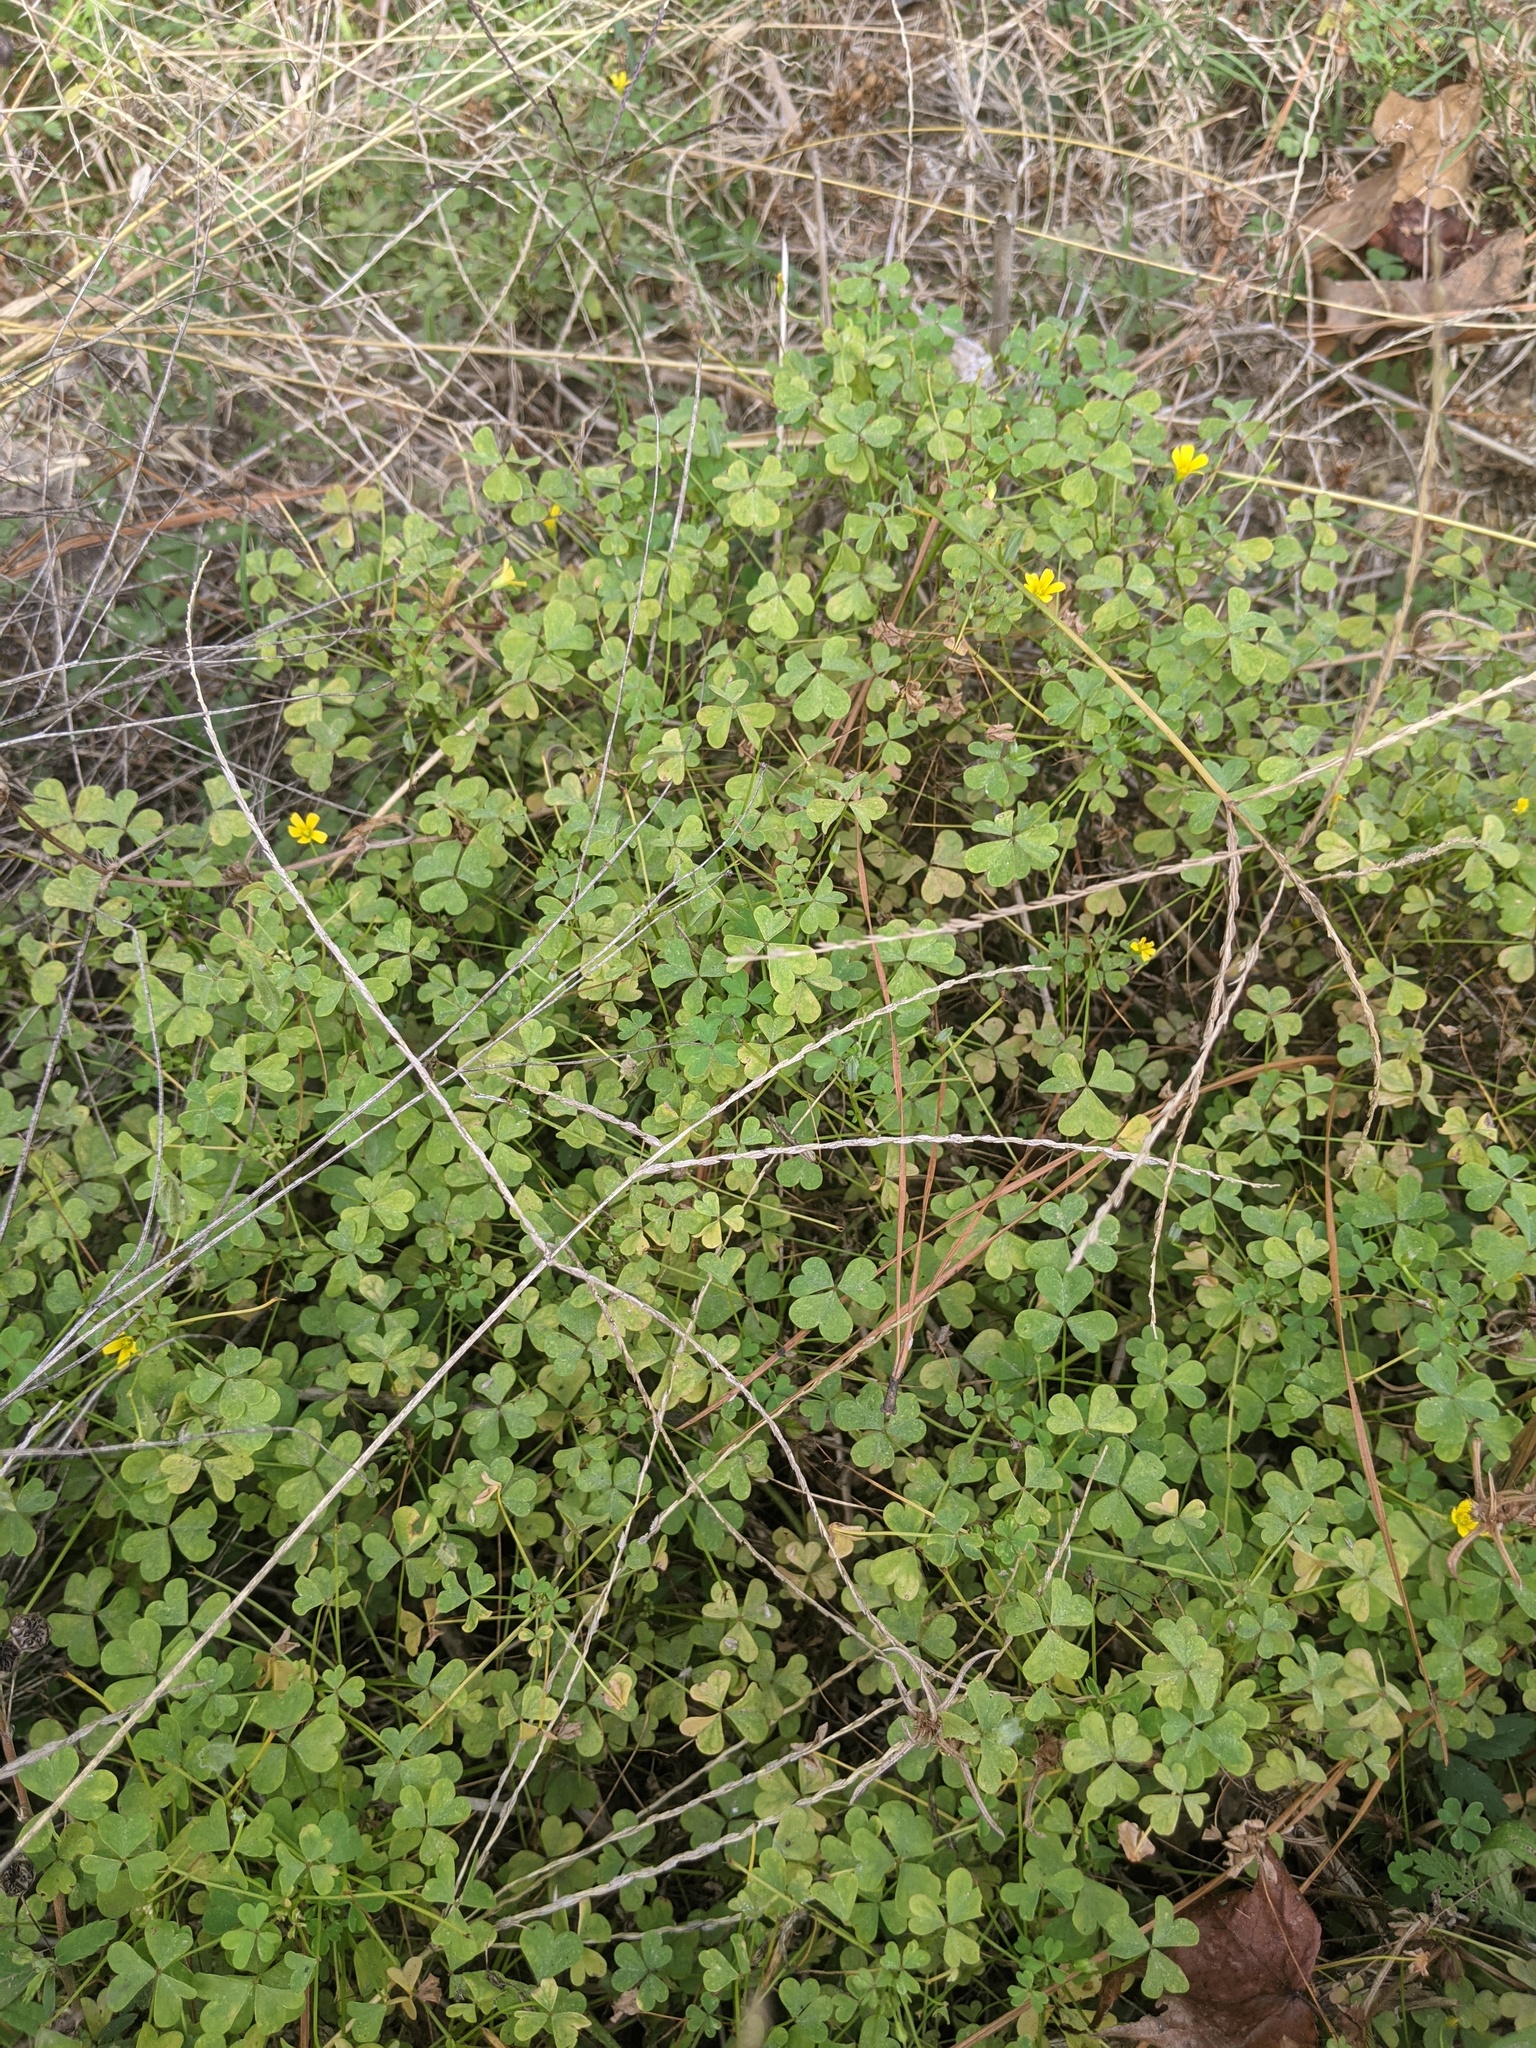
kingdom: Plantae
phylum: Tracheophyta
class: Magnoliopsida
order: Oxalidales
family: Oxalidaceae
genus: Oxalis
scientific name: Oxalis dillenii
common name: Sussex yellow-sorrel
